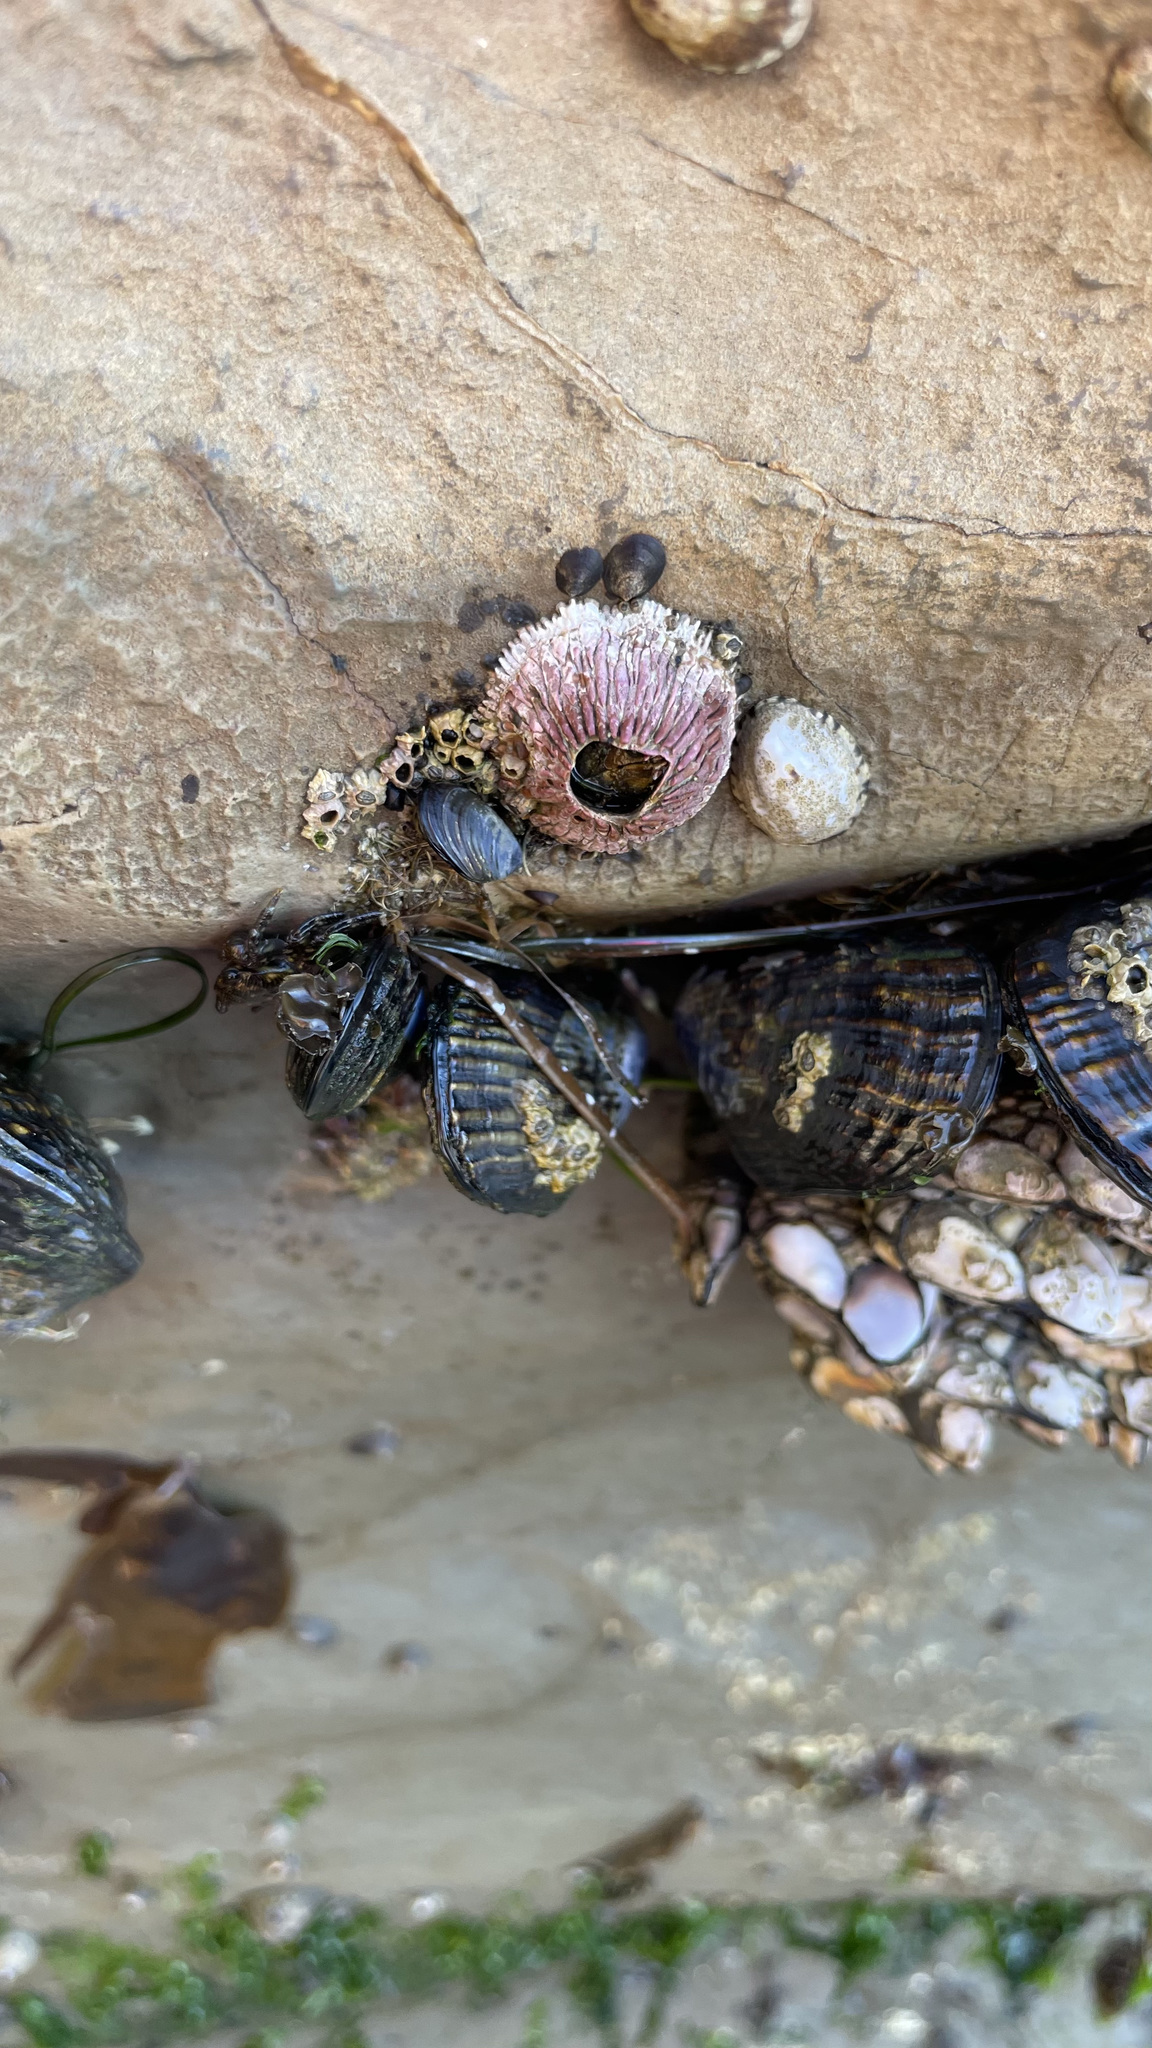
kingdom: Animalia
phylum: Arthropoda
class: Maxillopoda
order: Sessilia
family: Tetraclitidae
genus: Tetraclita
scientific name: Tetraclita rubescens
